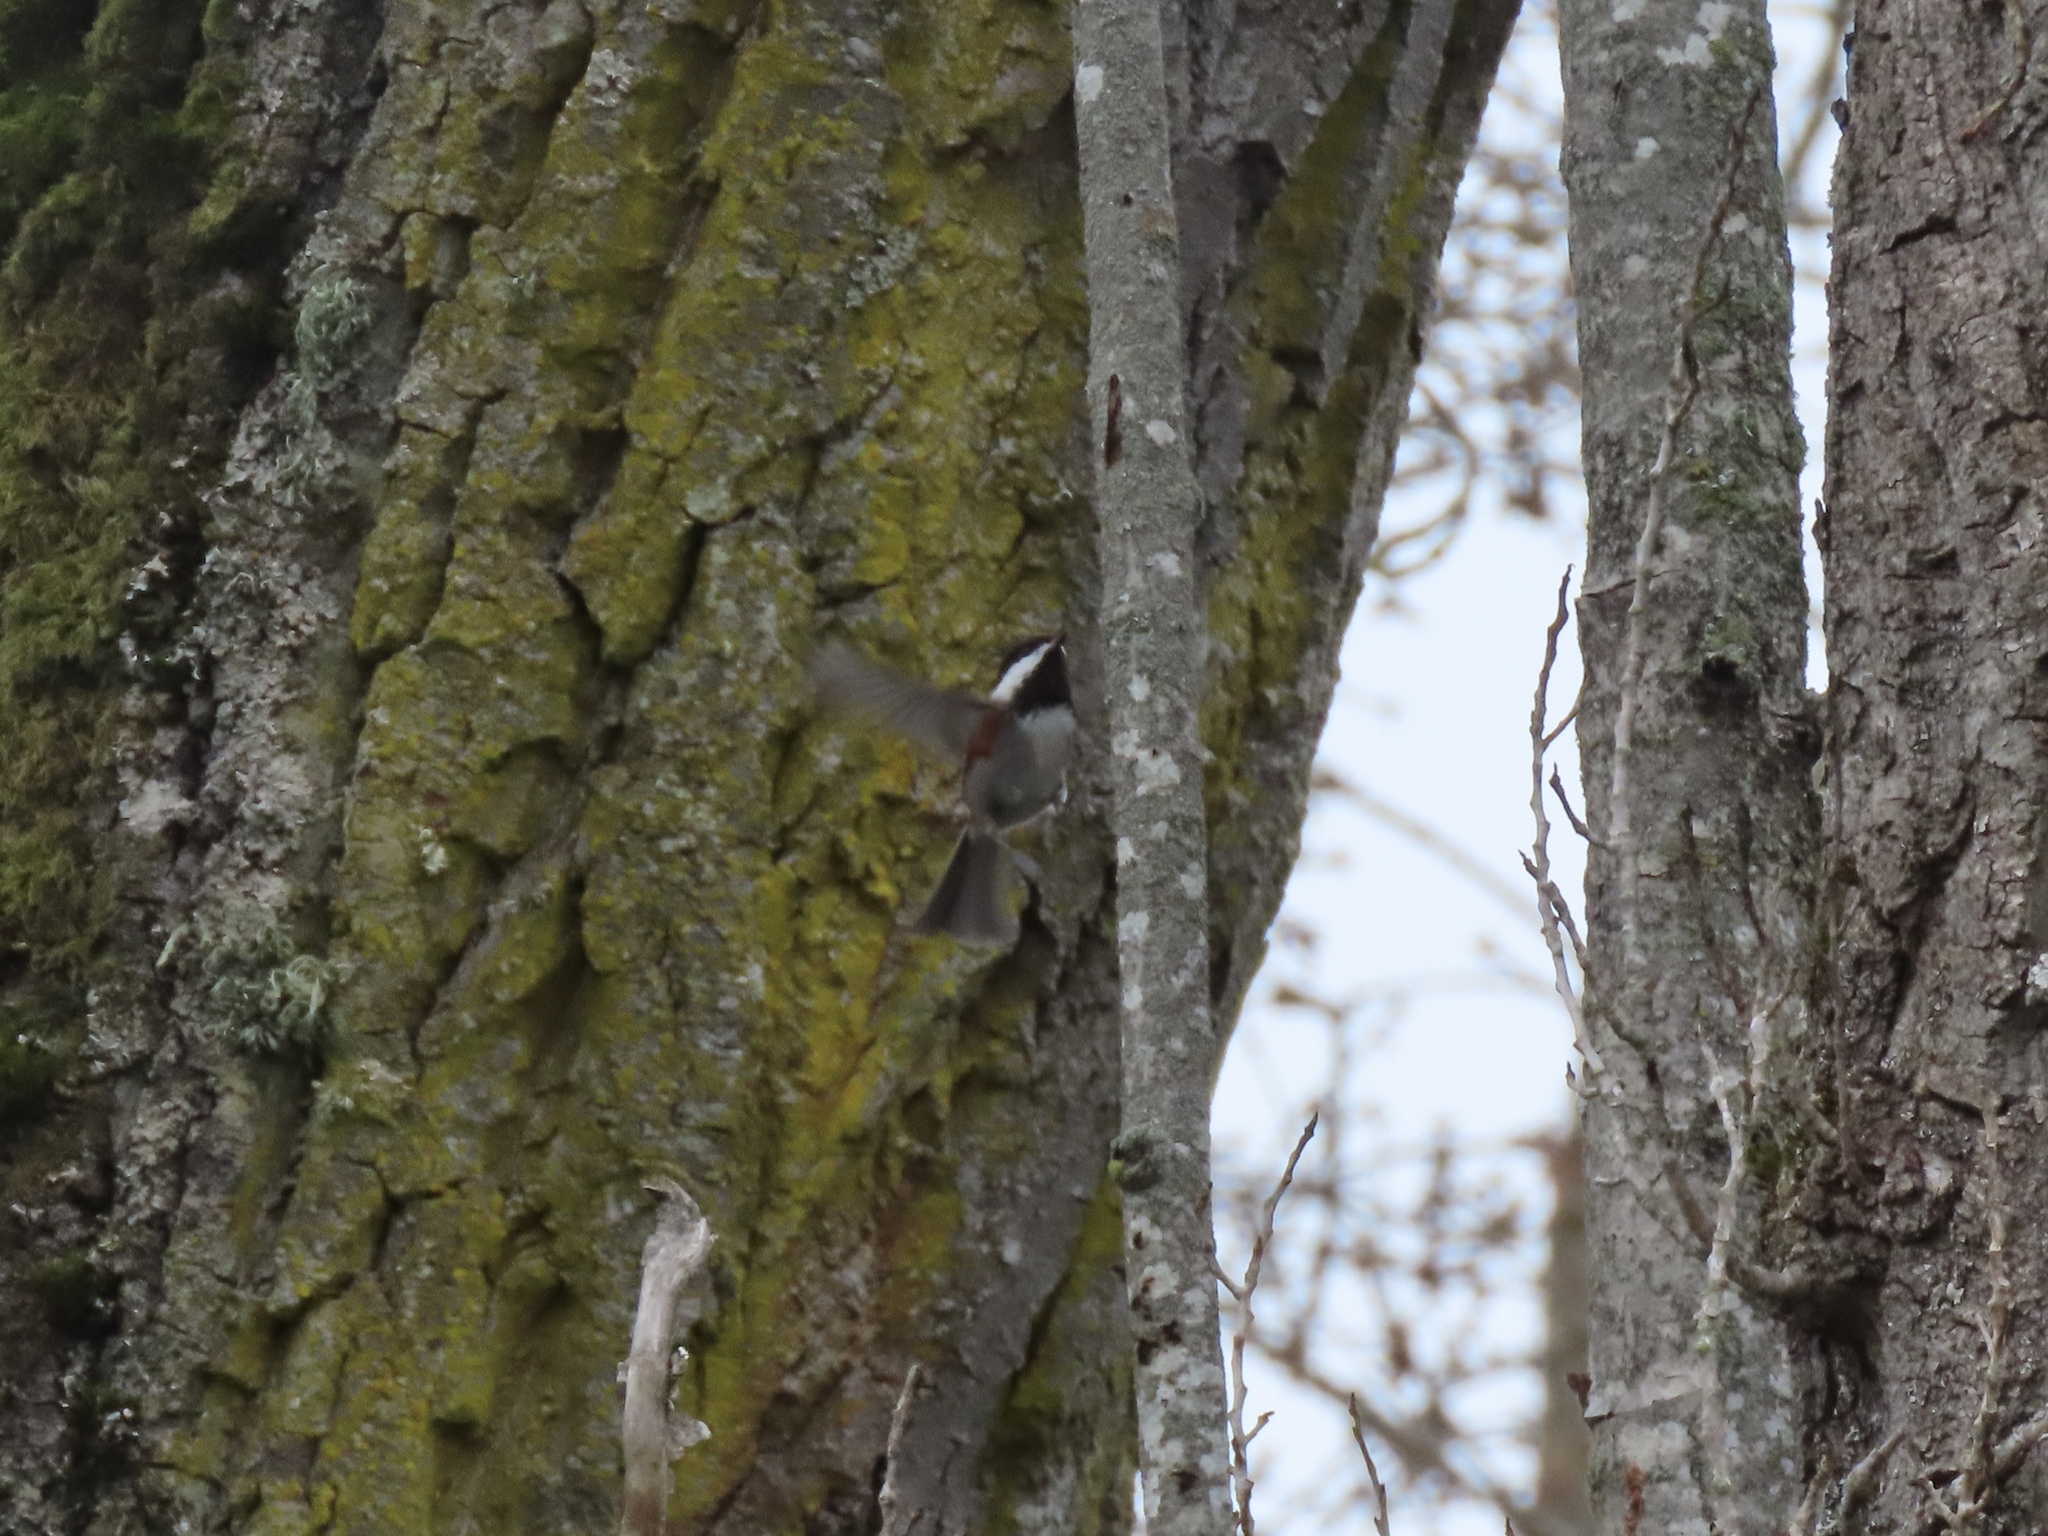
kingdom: Animalia
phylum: Chordata
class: Aves
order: Passeriformes
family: Paridae
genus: Poecile
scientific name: Poecile rufescens
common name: Chestnut-backed chickadee
